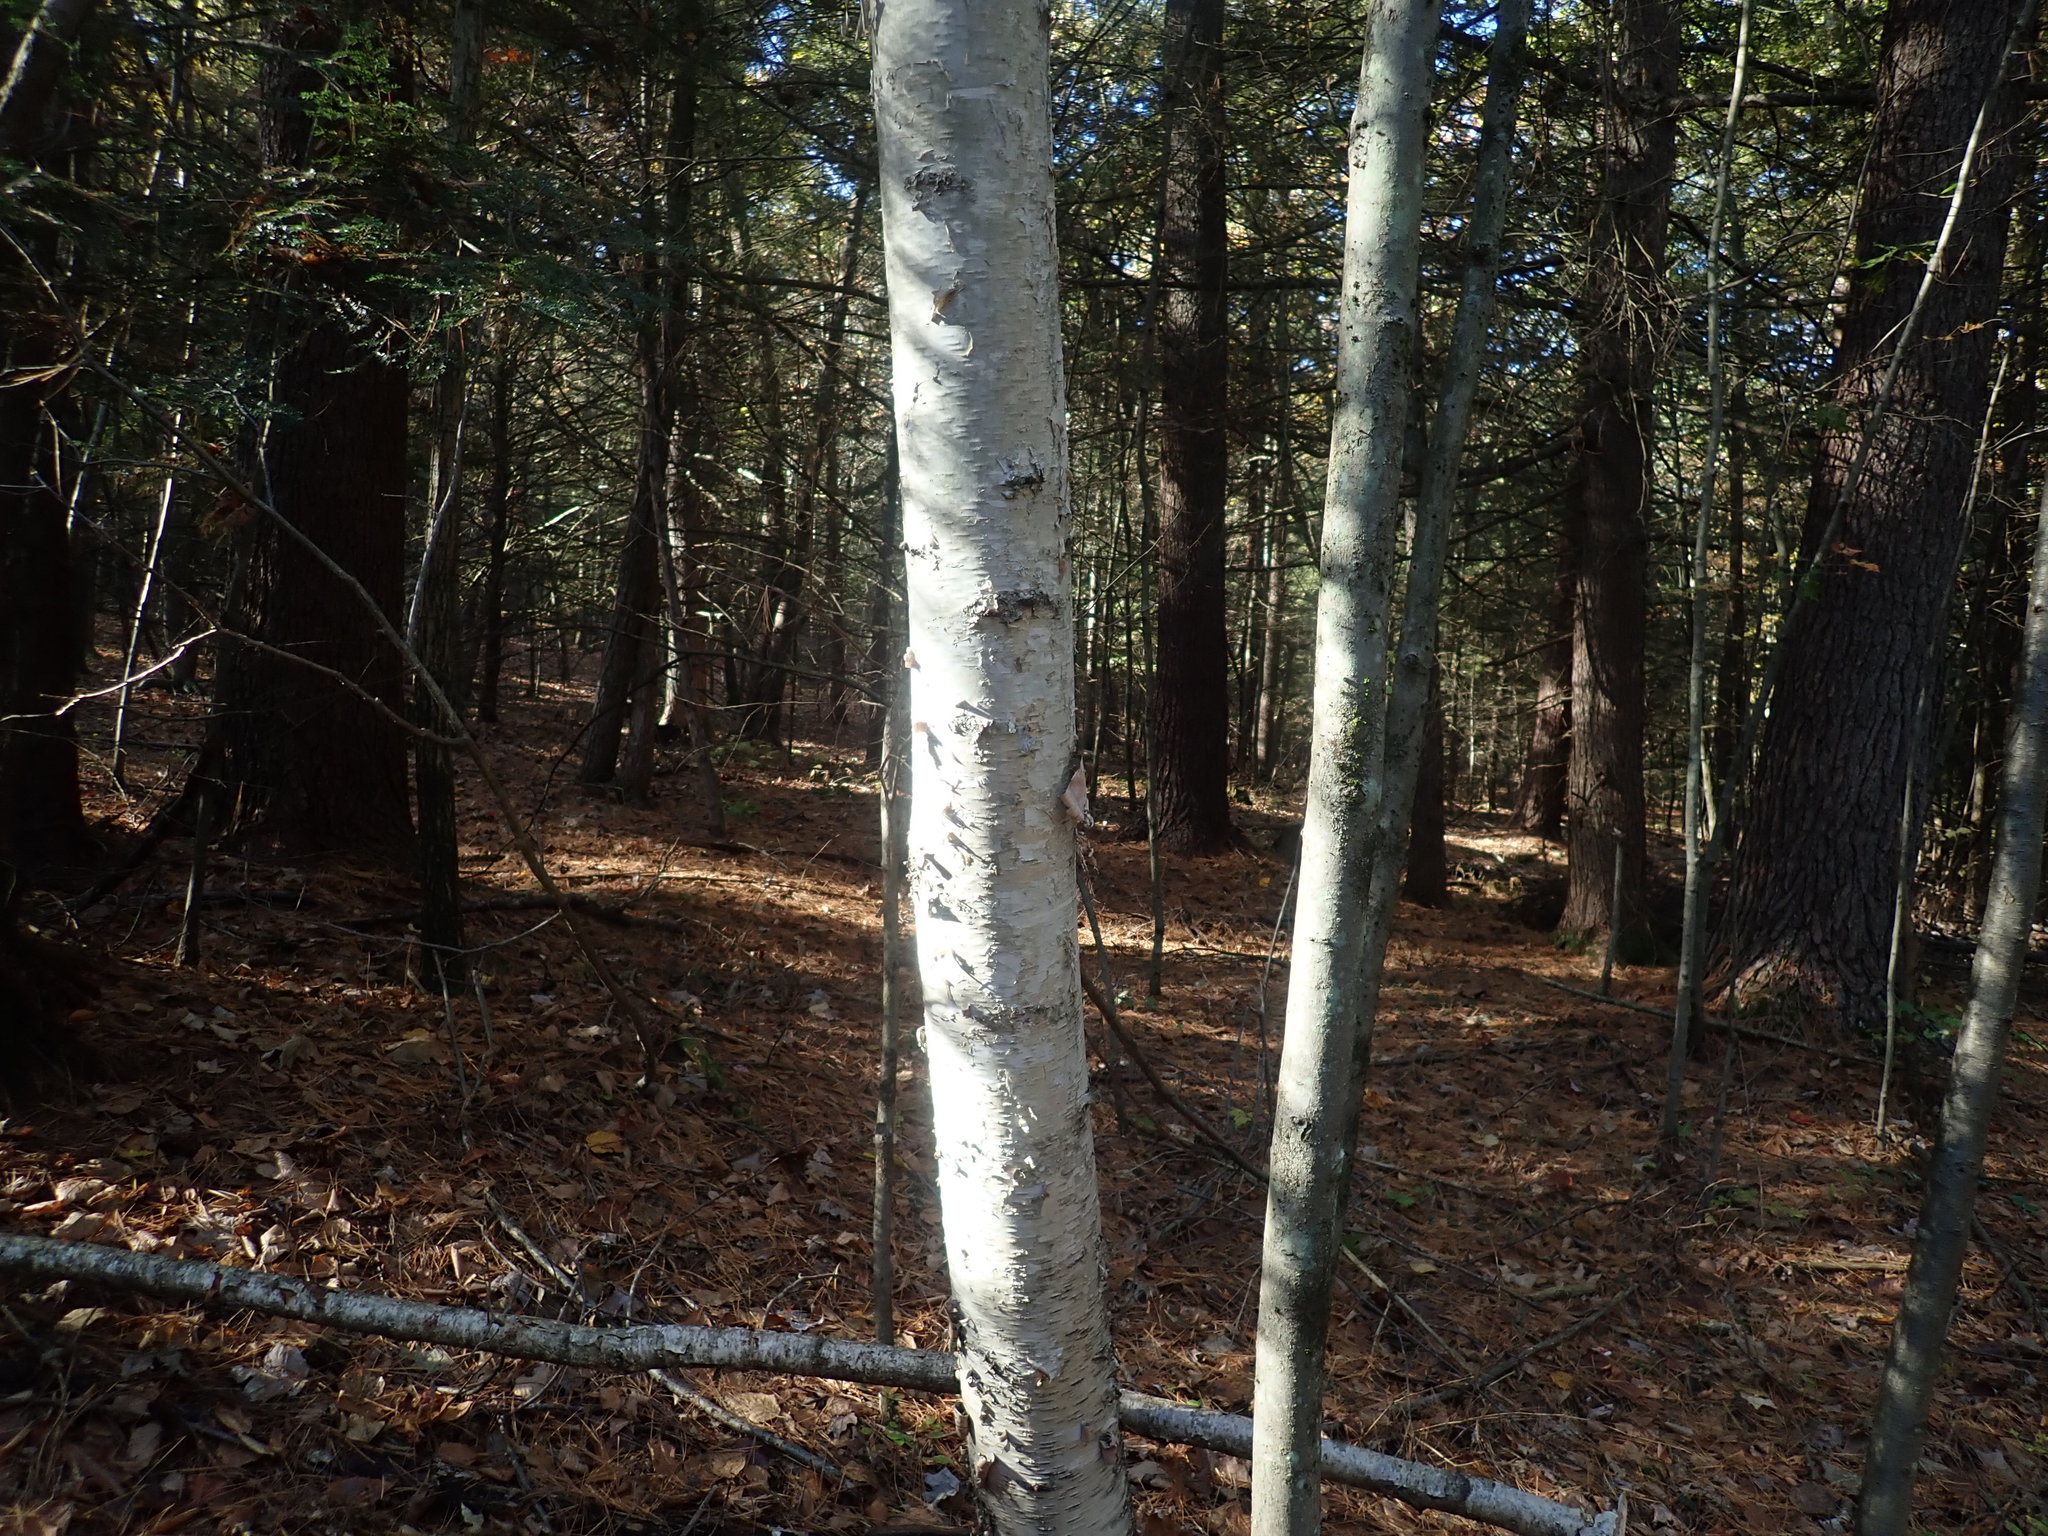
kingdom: Plantae
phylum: Tracheophyta
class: Magnoliopsida
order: Fagales
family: Betulaceae
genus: Betula
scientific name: Betula papyrifera
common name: Paper birch
